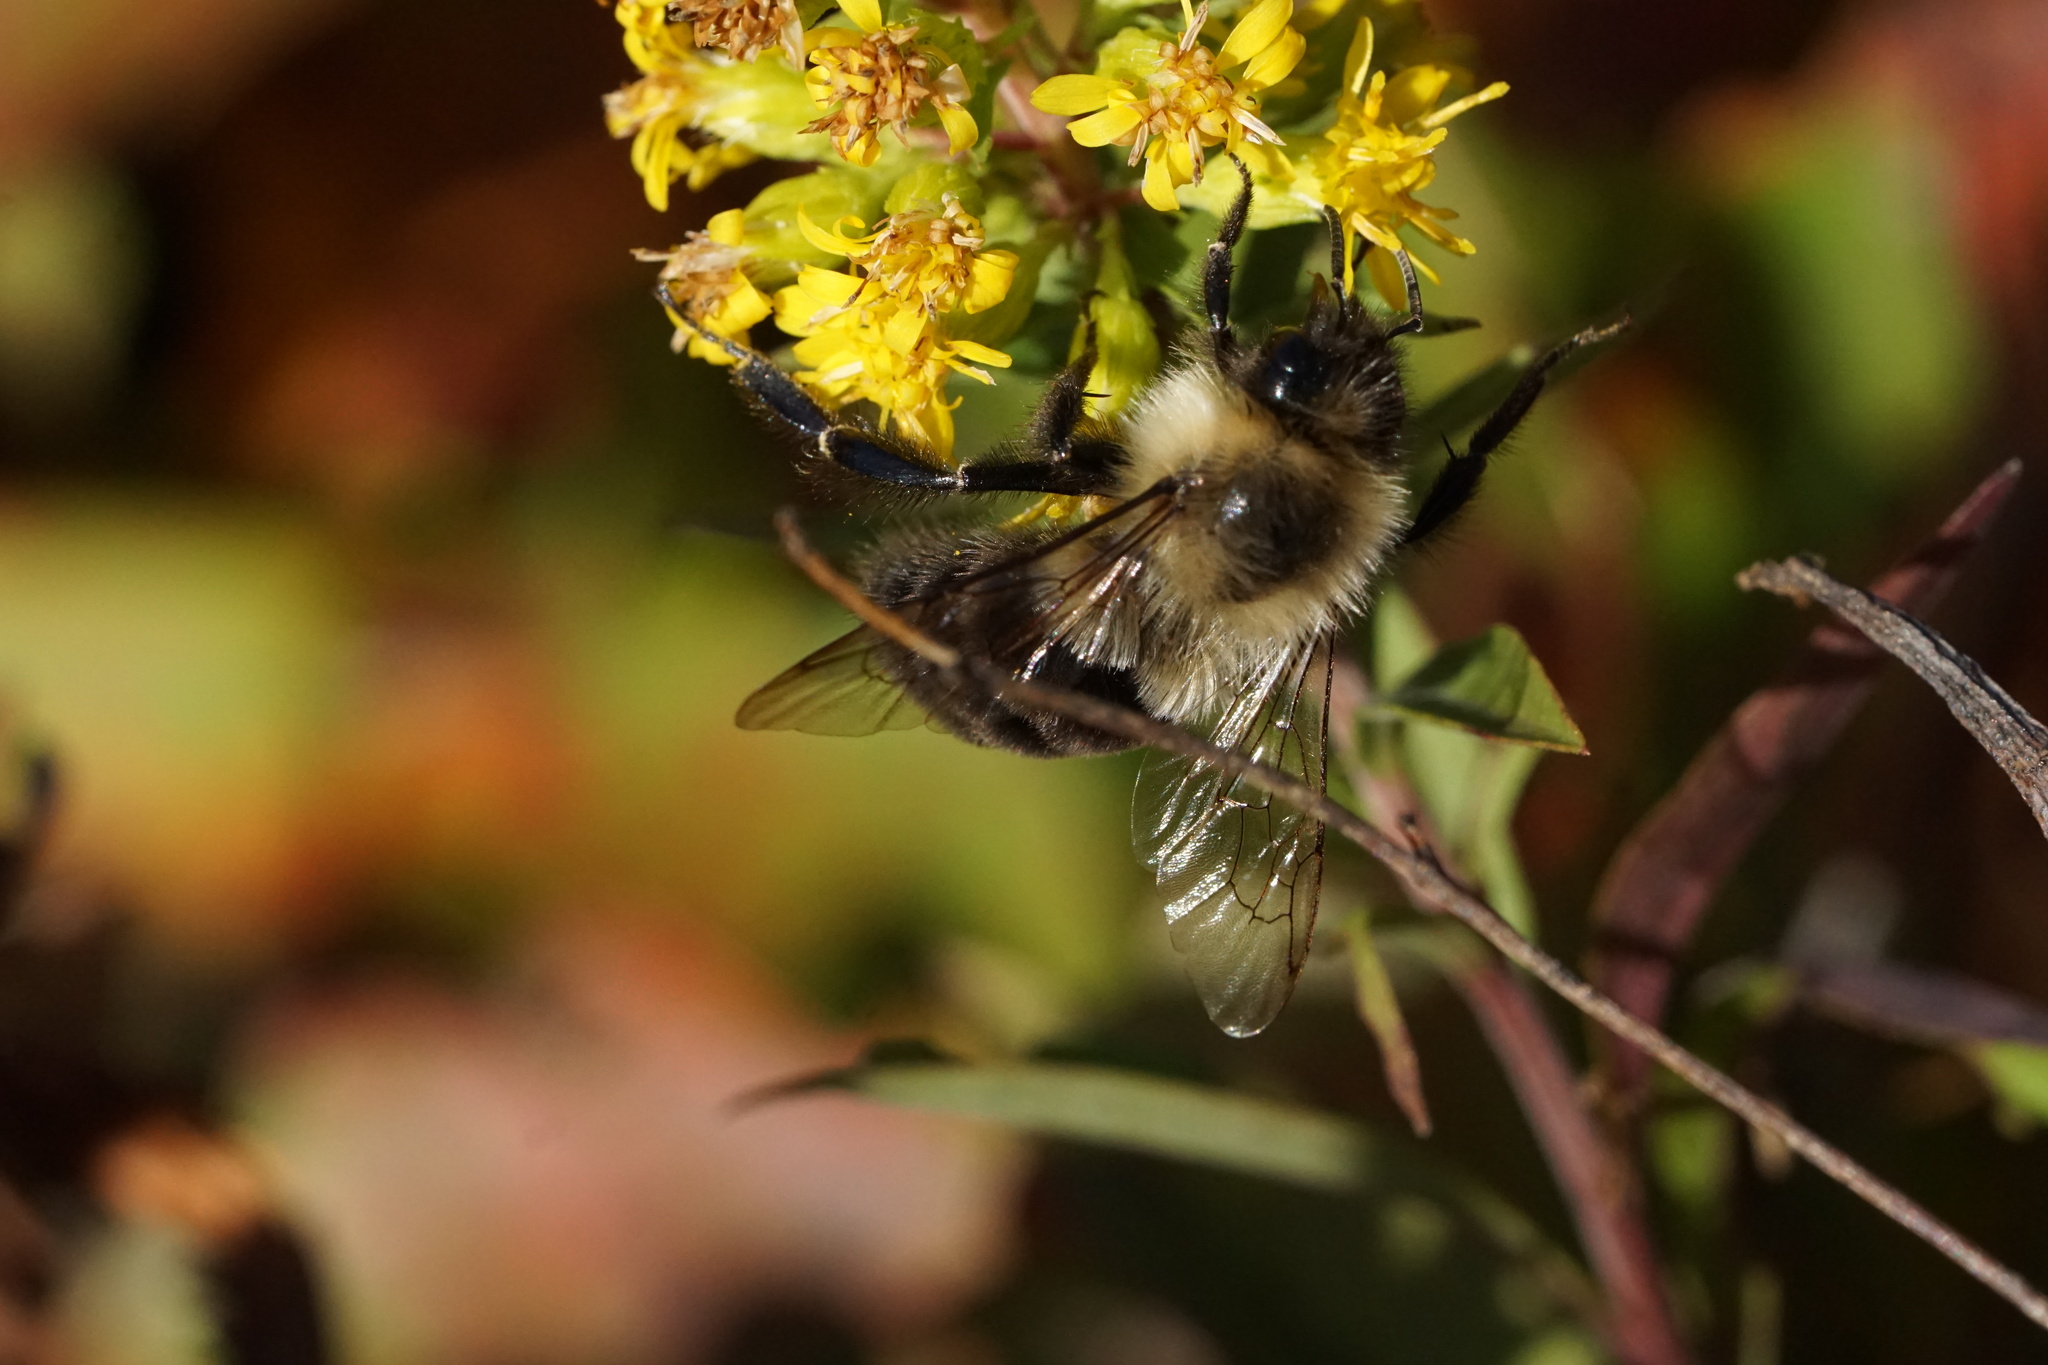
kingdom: Animalia
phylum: Arthropoda
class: Insecta
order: Hymenoptera
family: Apidae
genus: Bombus
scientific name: Bombus impatiens
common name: Common eastern bumble bee
